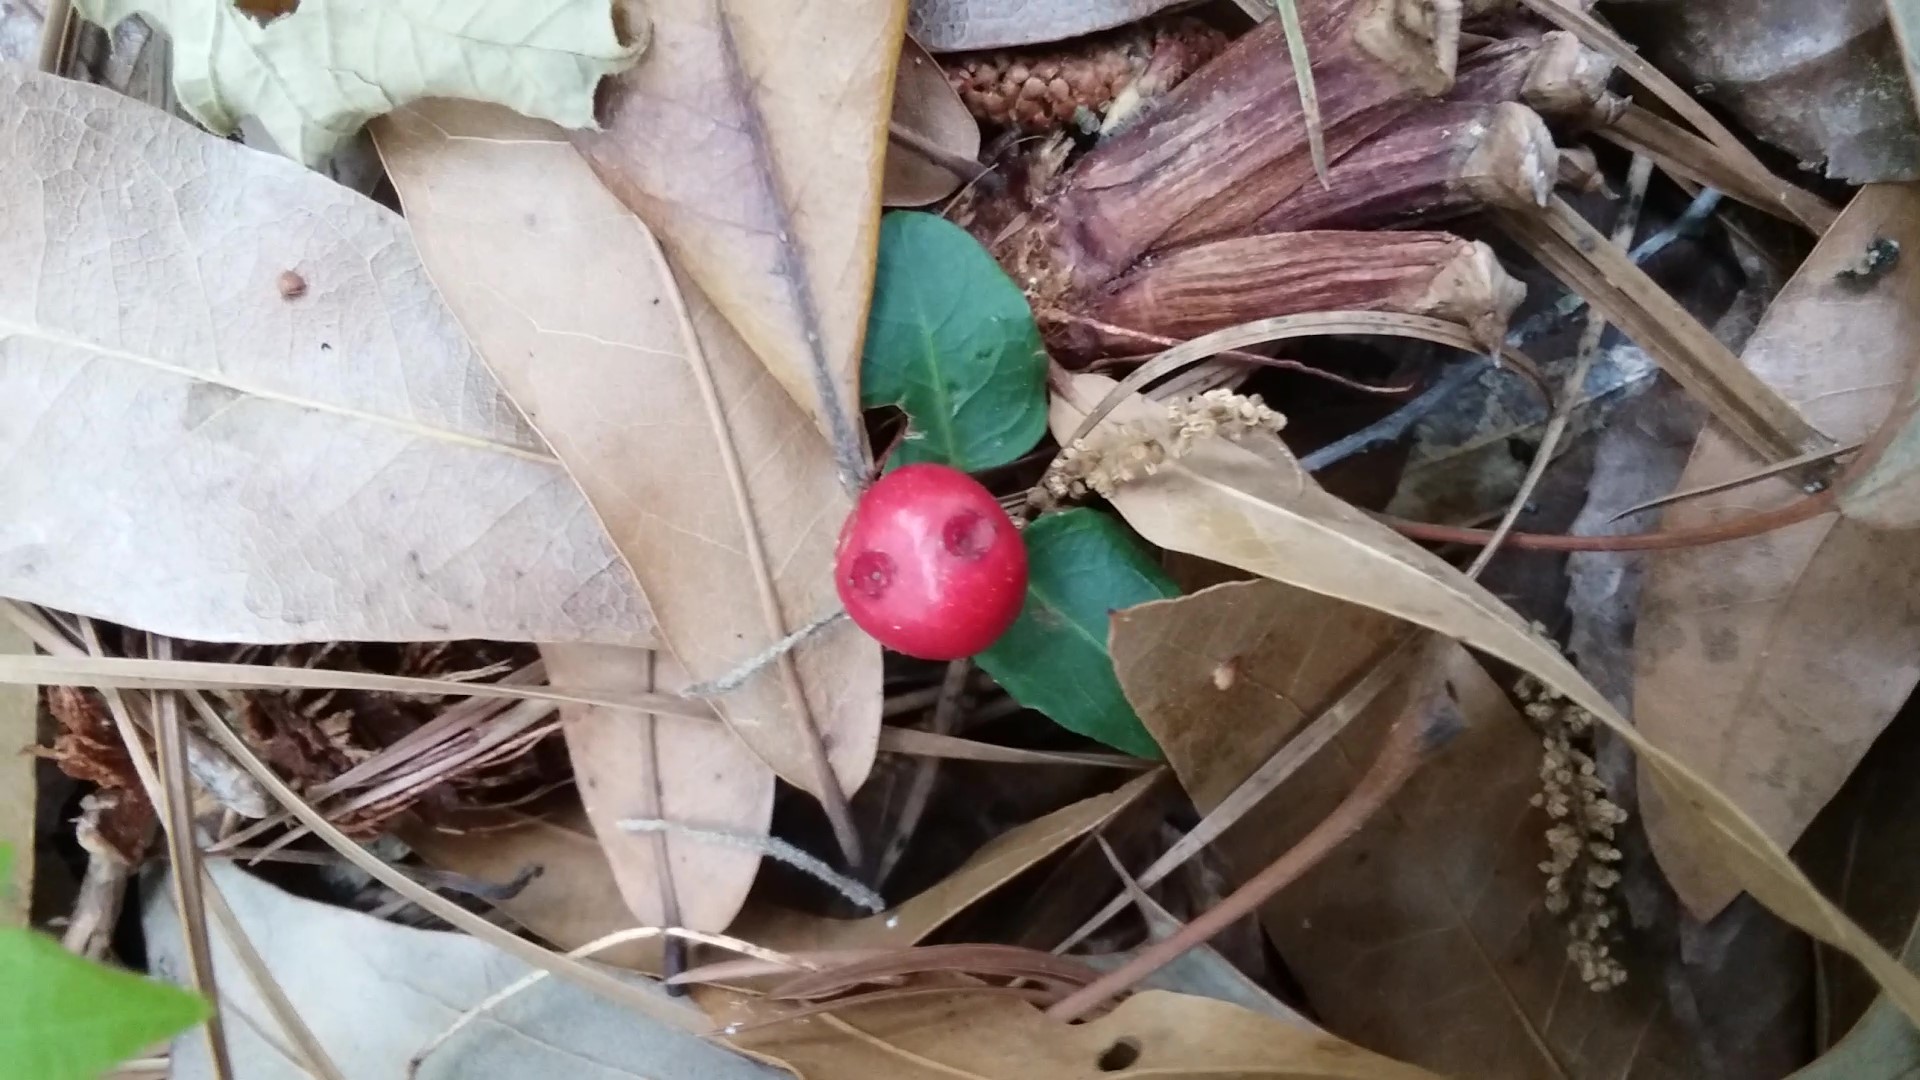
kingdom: Plantae
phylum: Tracheophyta
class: Magnoliopsida
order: Gentianales
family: Rubiaceae
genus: Mitchella
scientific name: Mitchella repens
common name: Partridge-berry
